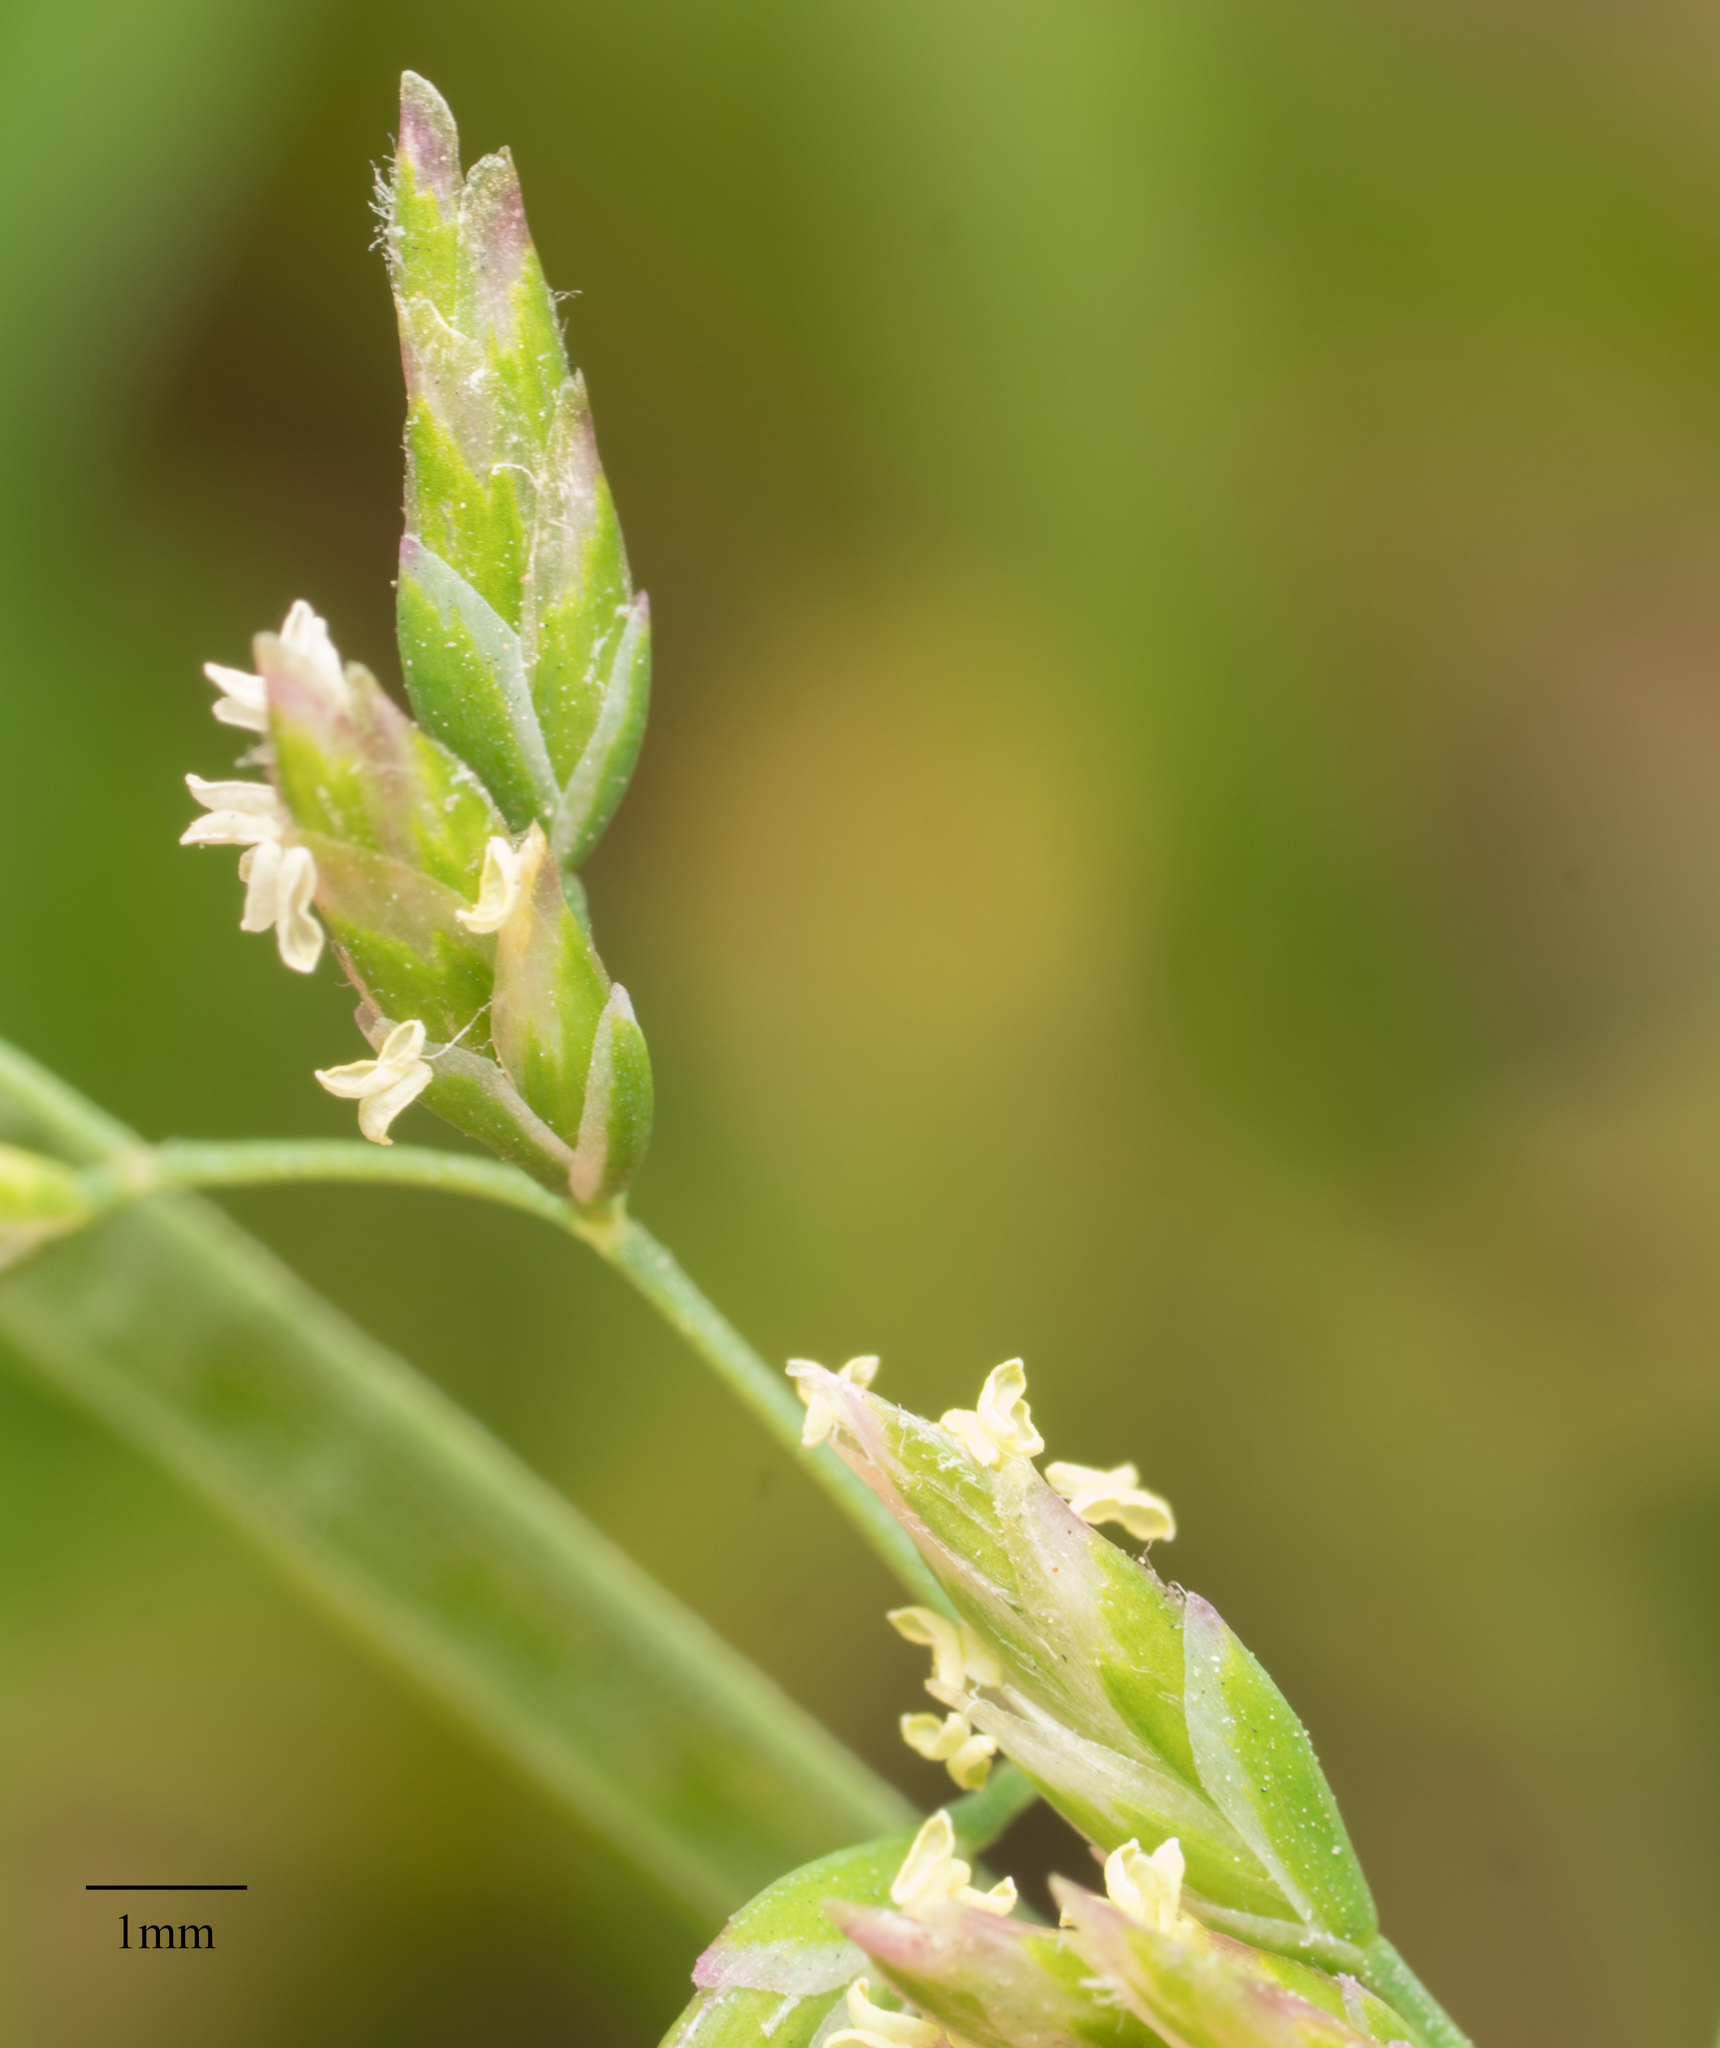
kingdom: Plantae
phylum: Tracheophyta
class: Liliopsida
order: Poales
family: Poaceae
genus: Poa
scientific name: Poa annua
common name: Annual bluegrass
